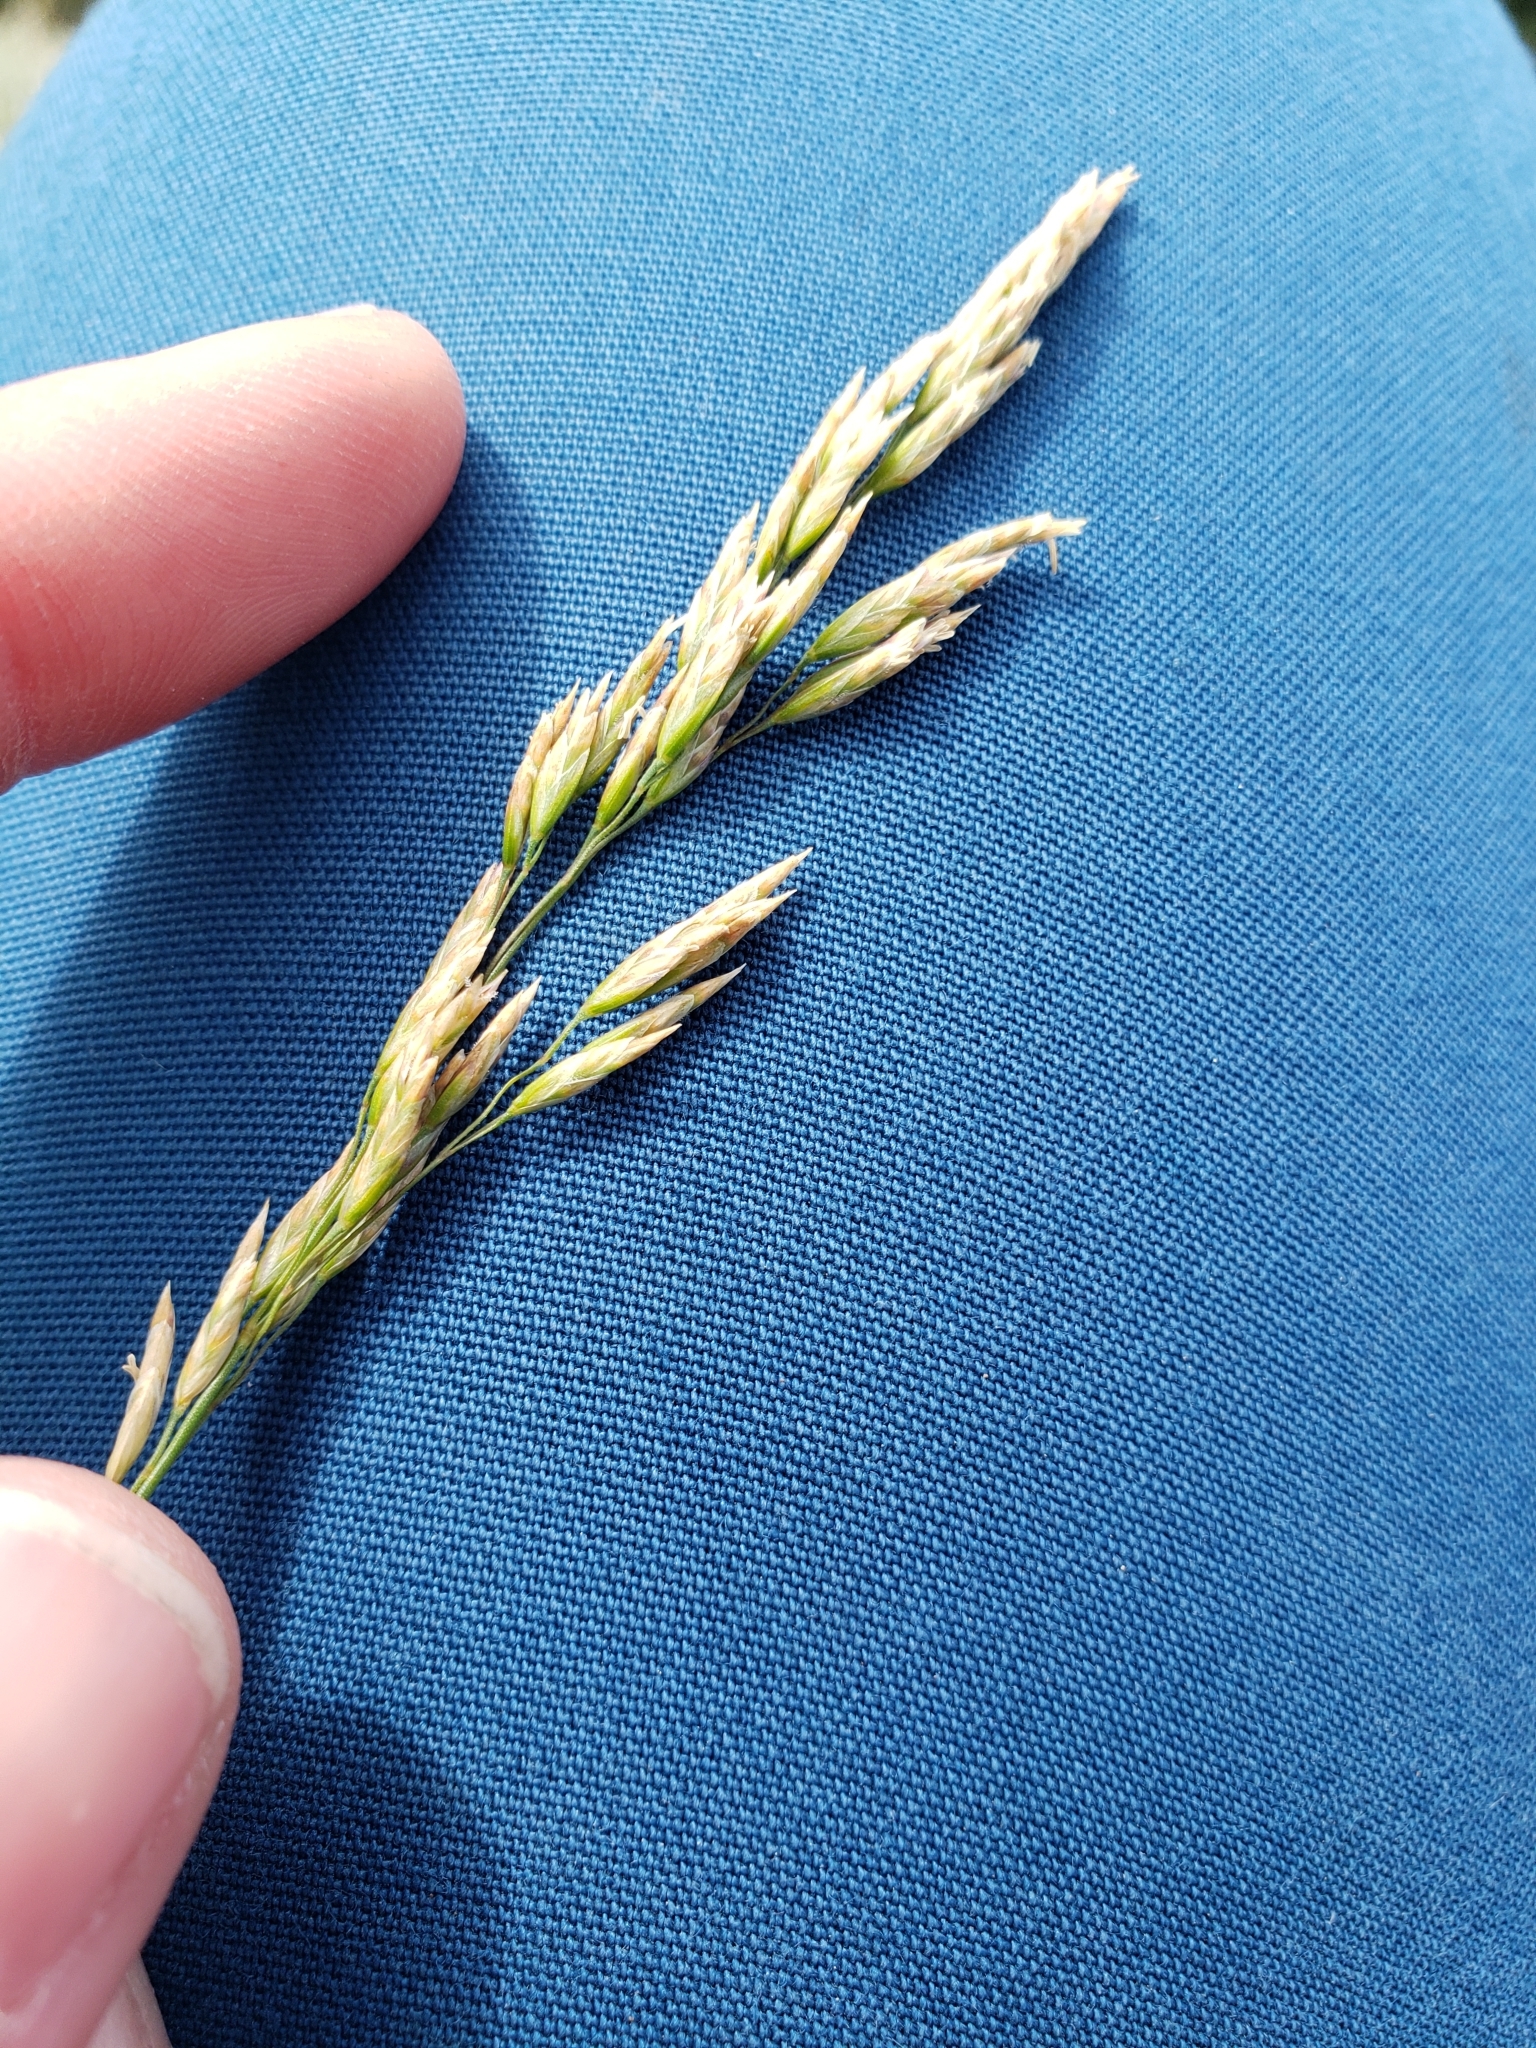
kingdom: Plantae
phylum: Tracheophyta
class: Liliopsida
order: Poales
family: Poaceae
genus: Poa
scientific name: Poa secunda
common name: Sandberg bluegrass
